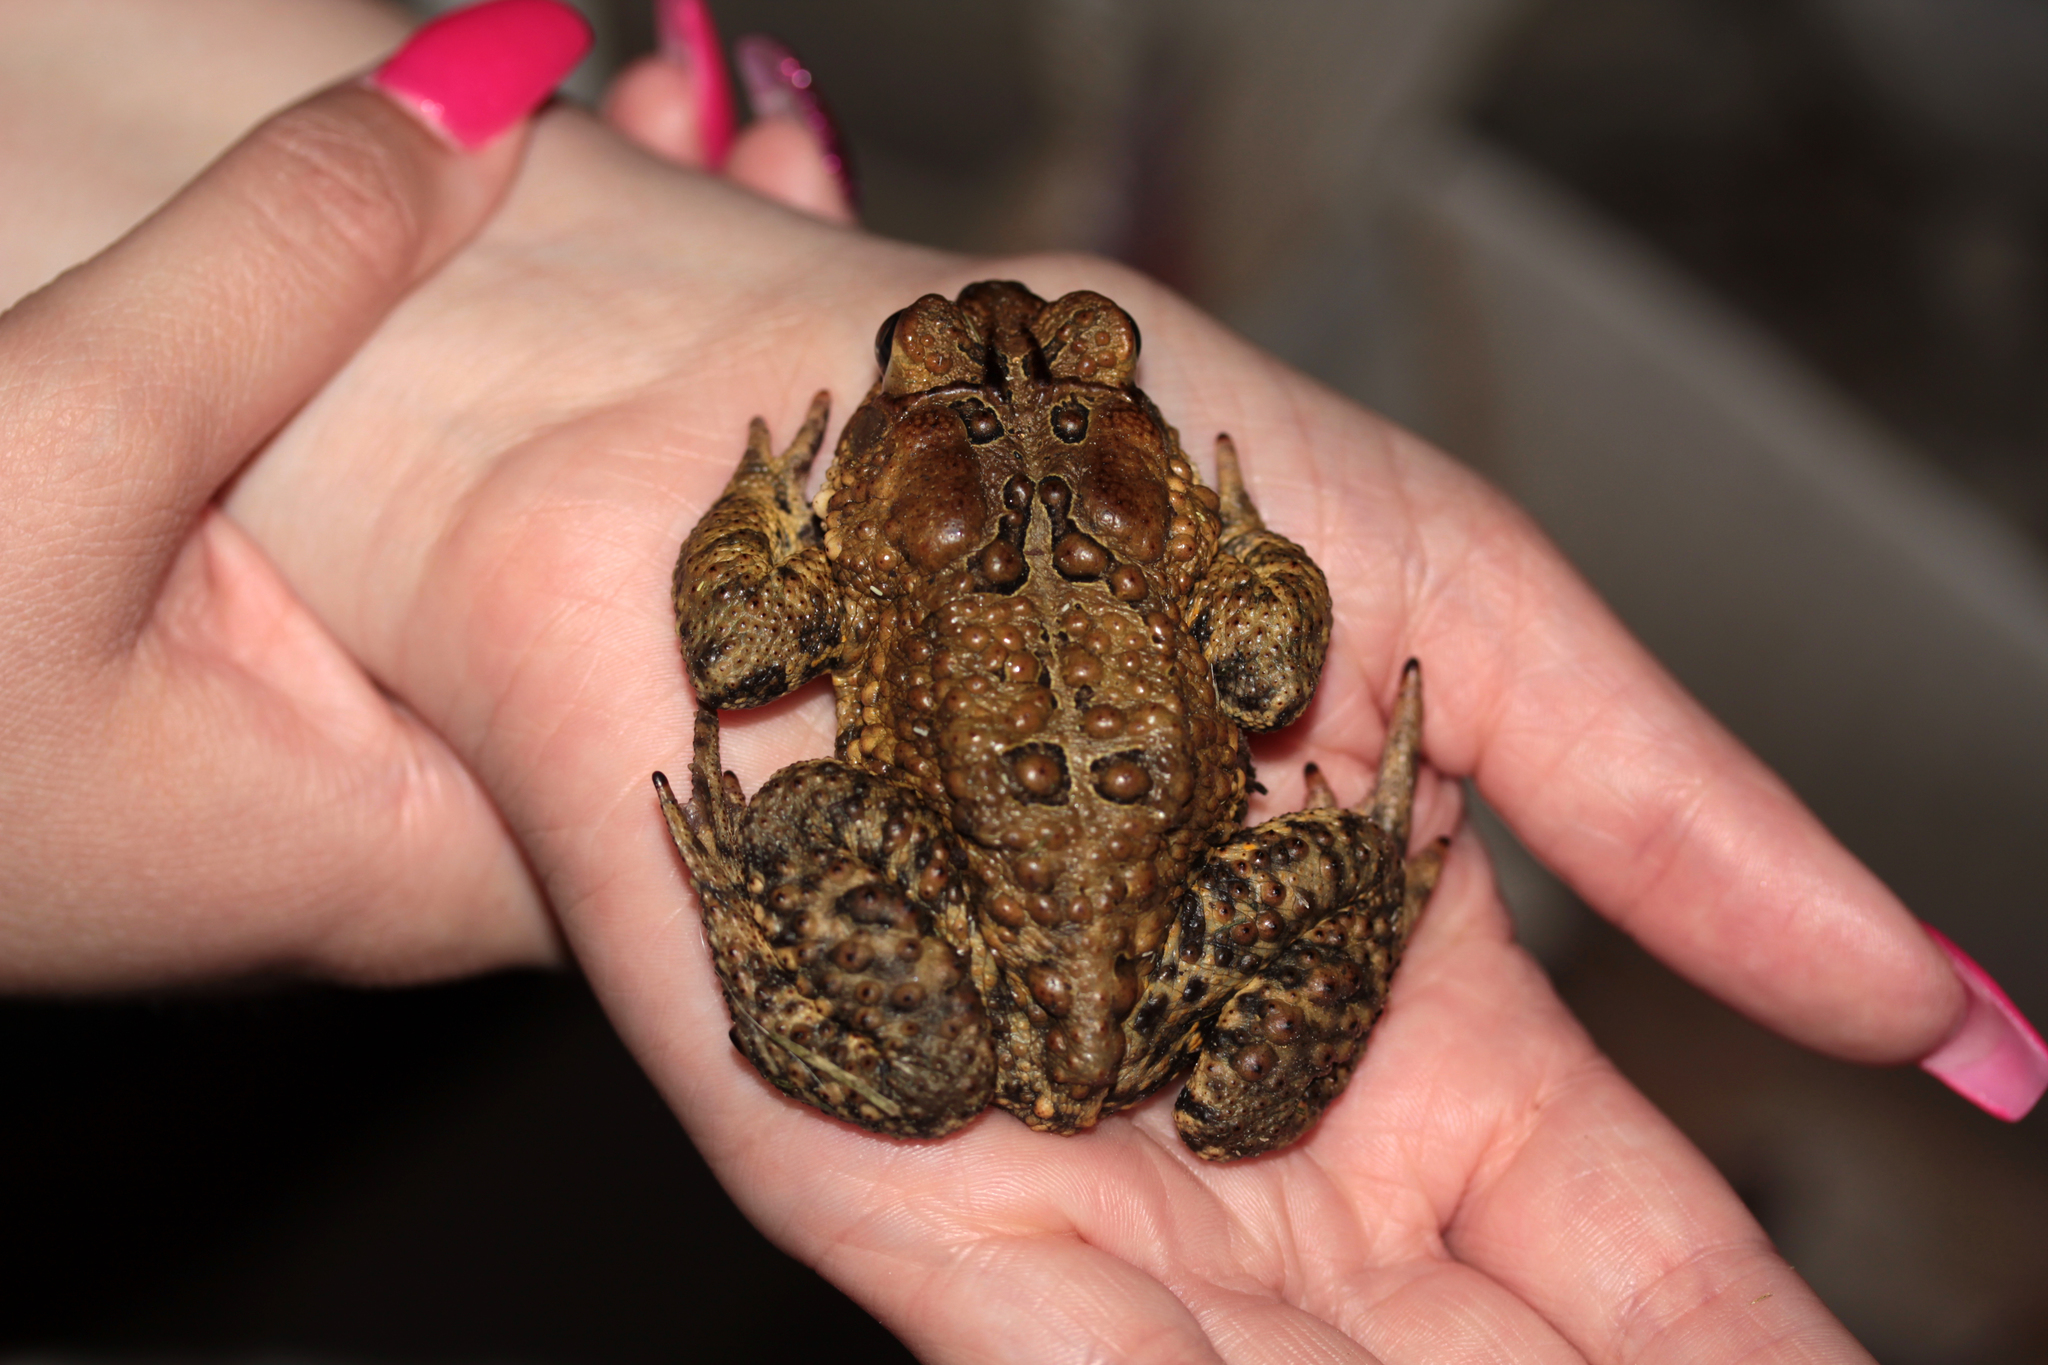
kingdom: Animalia
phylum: Chordata
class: Amphibia
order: Anura
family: Bufonidae
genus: Anaxyrus
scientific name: Anaxyrus americanus
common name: American toad
